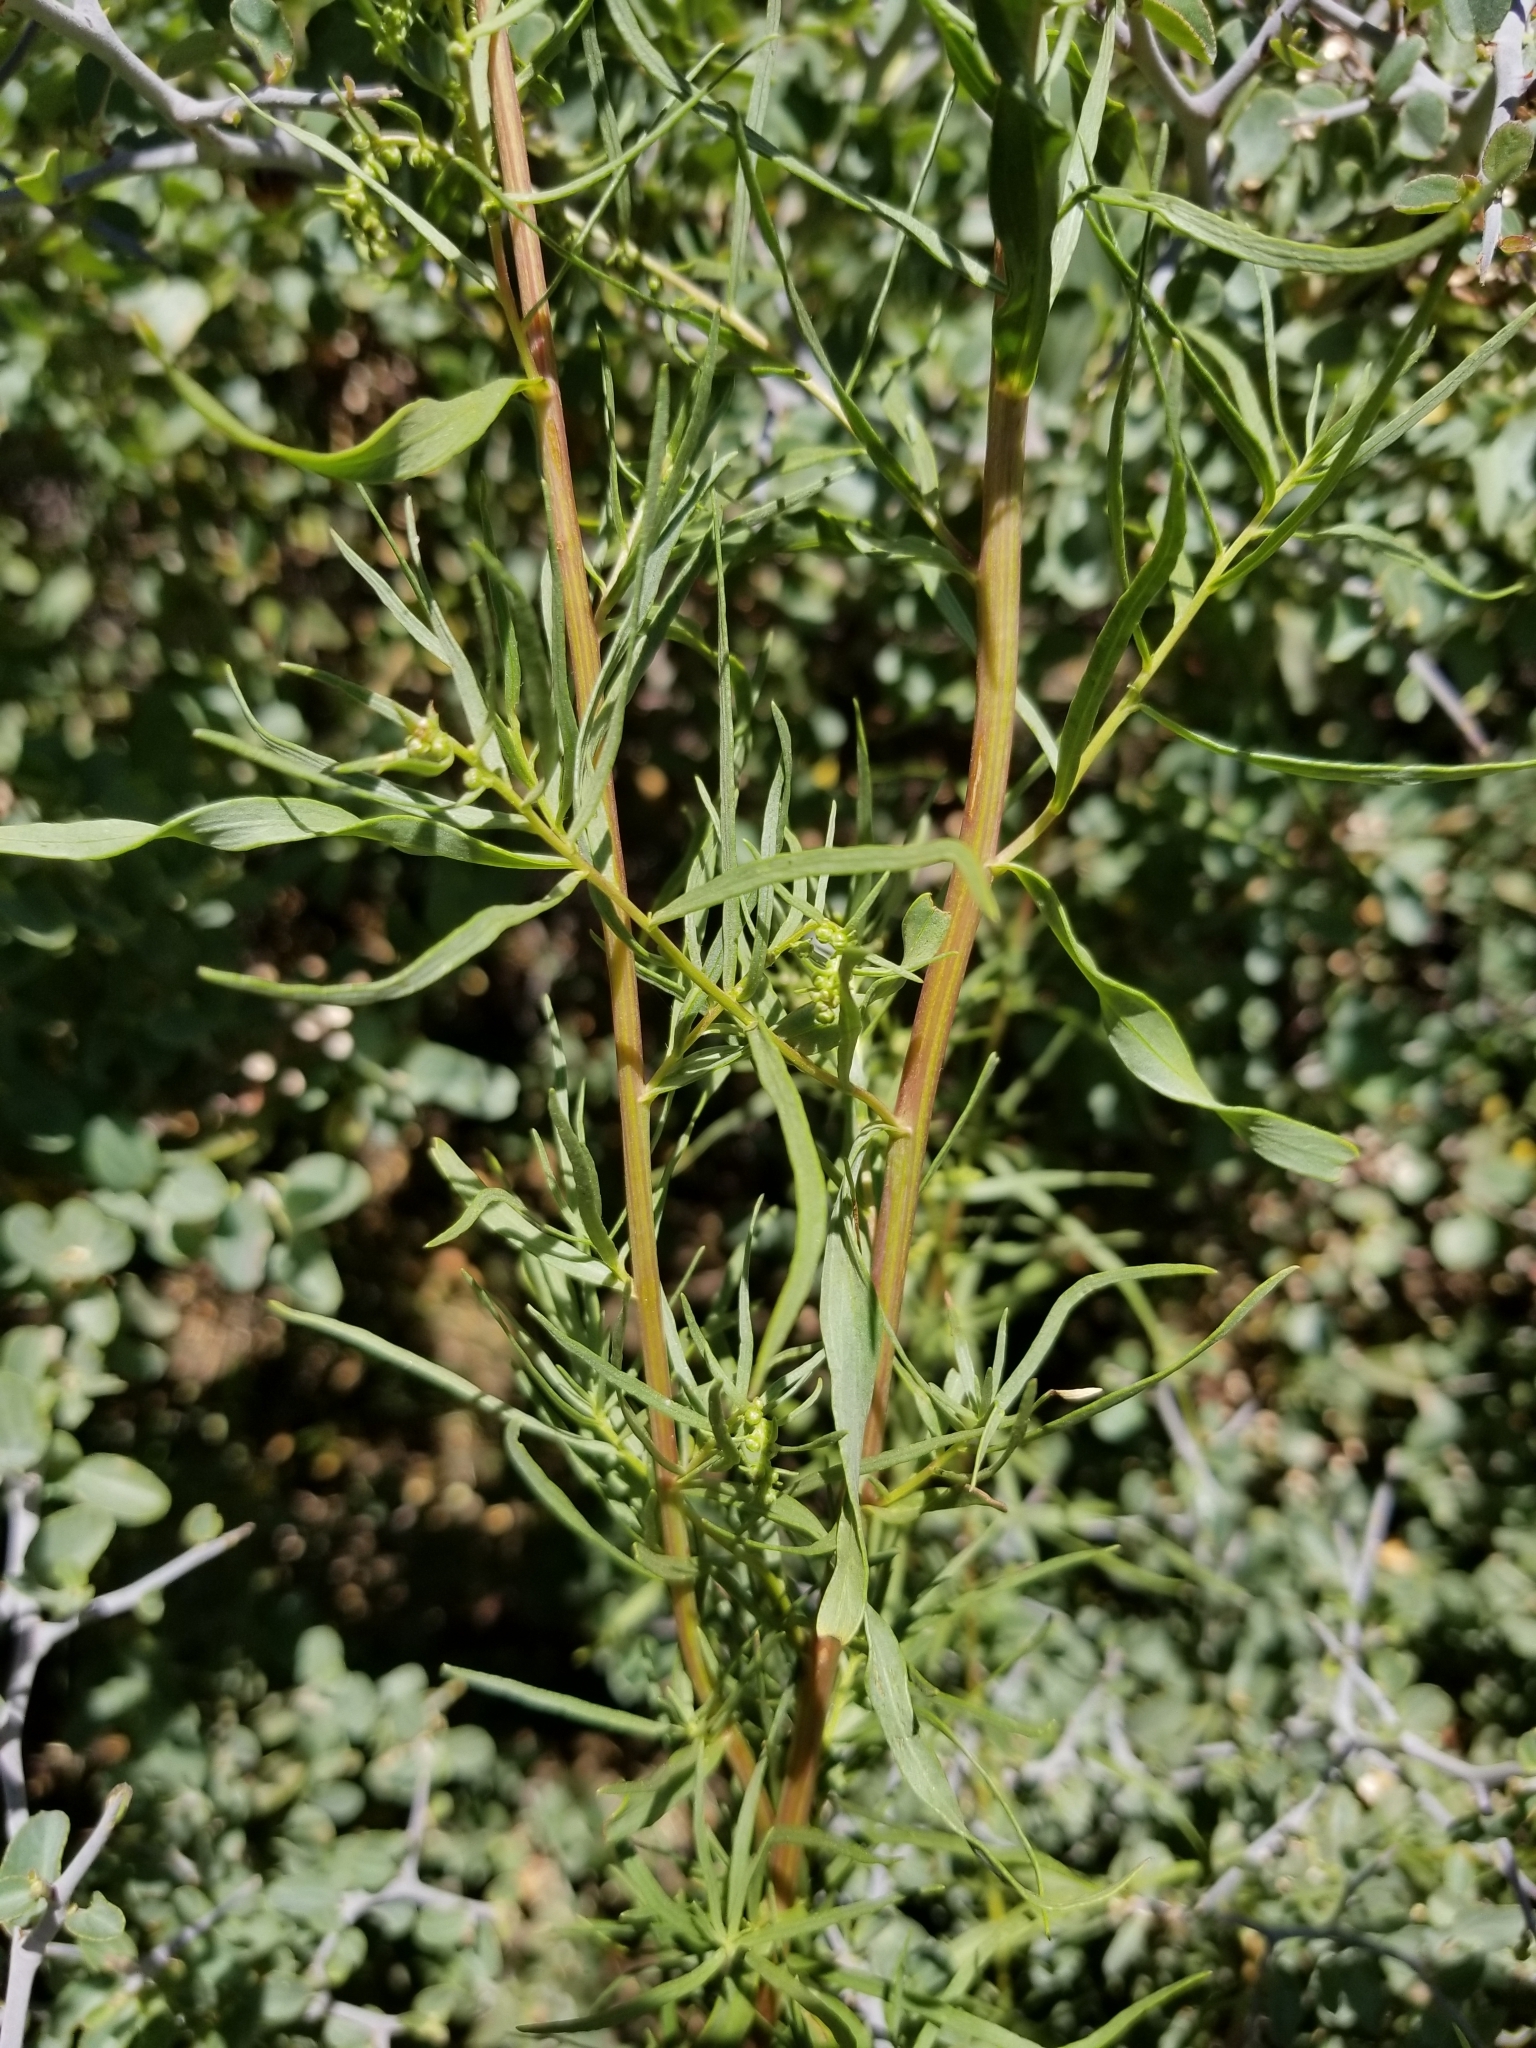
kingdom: Plantae
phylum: Tracheophyta
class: Magnoliopsida
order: Asterales
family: Asteraceae
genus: Artemisia
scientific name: Artemisia dracunculus
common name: Tarragon
